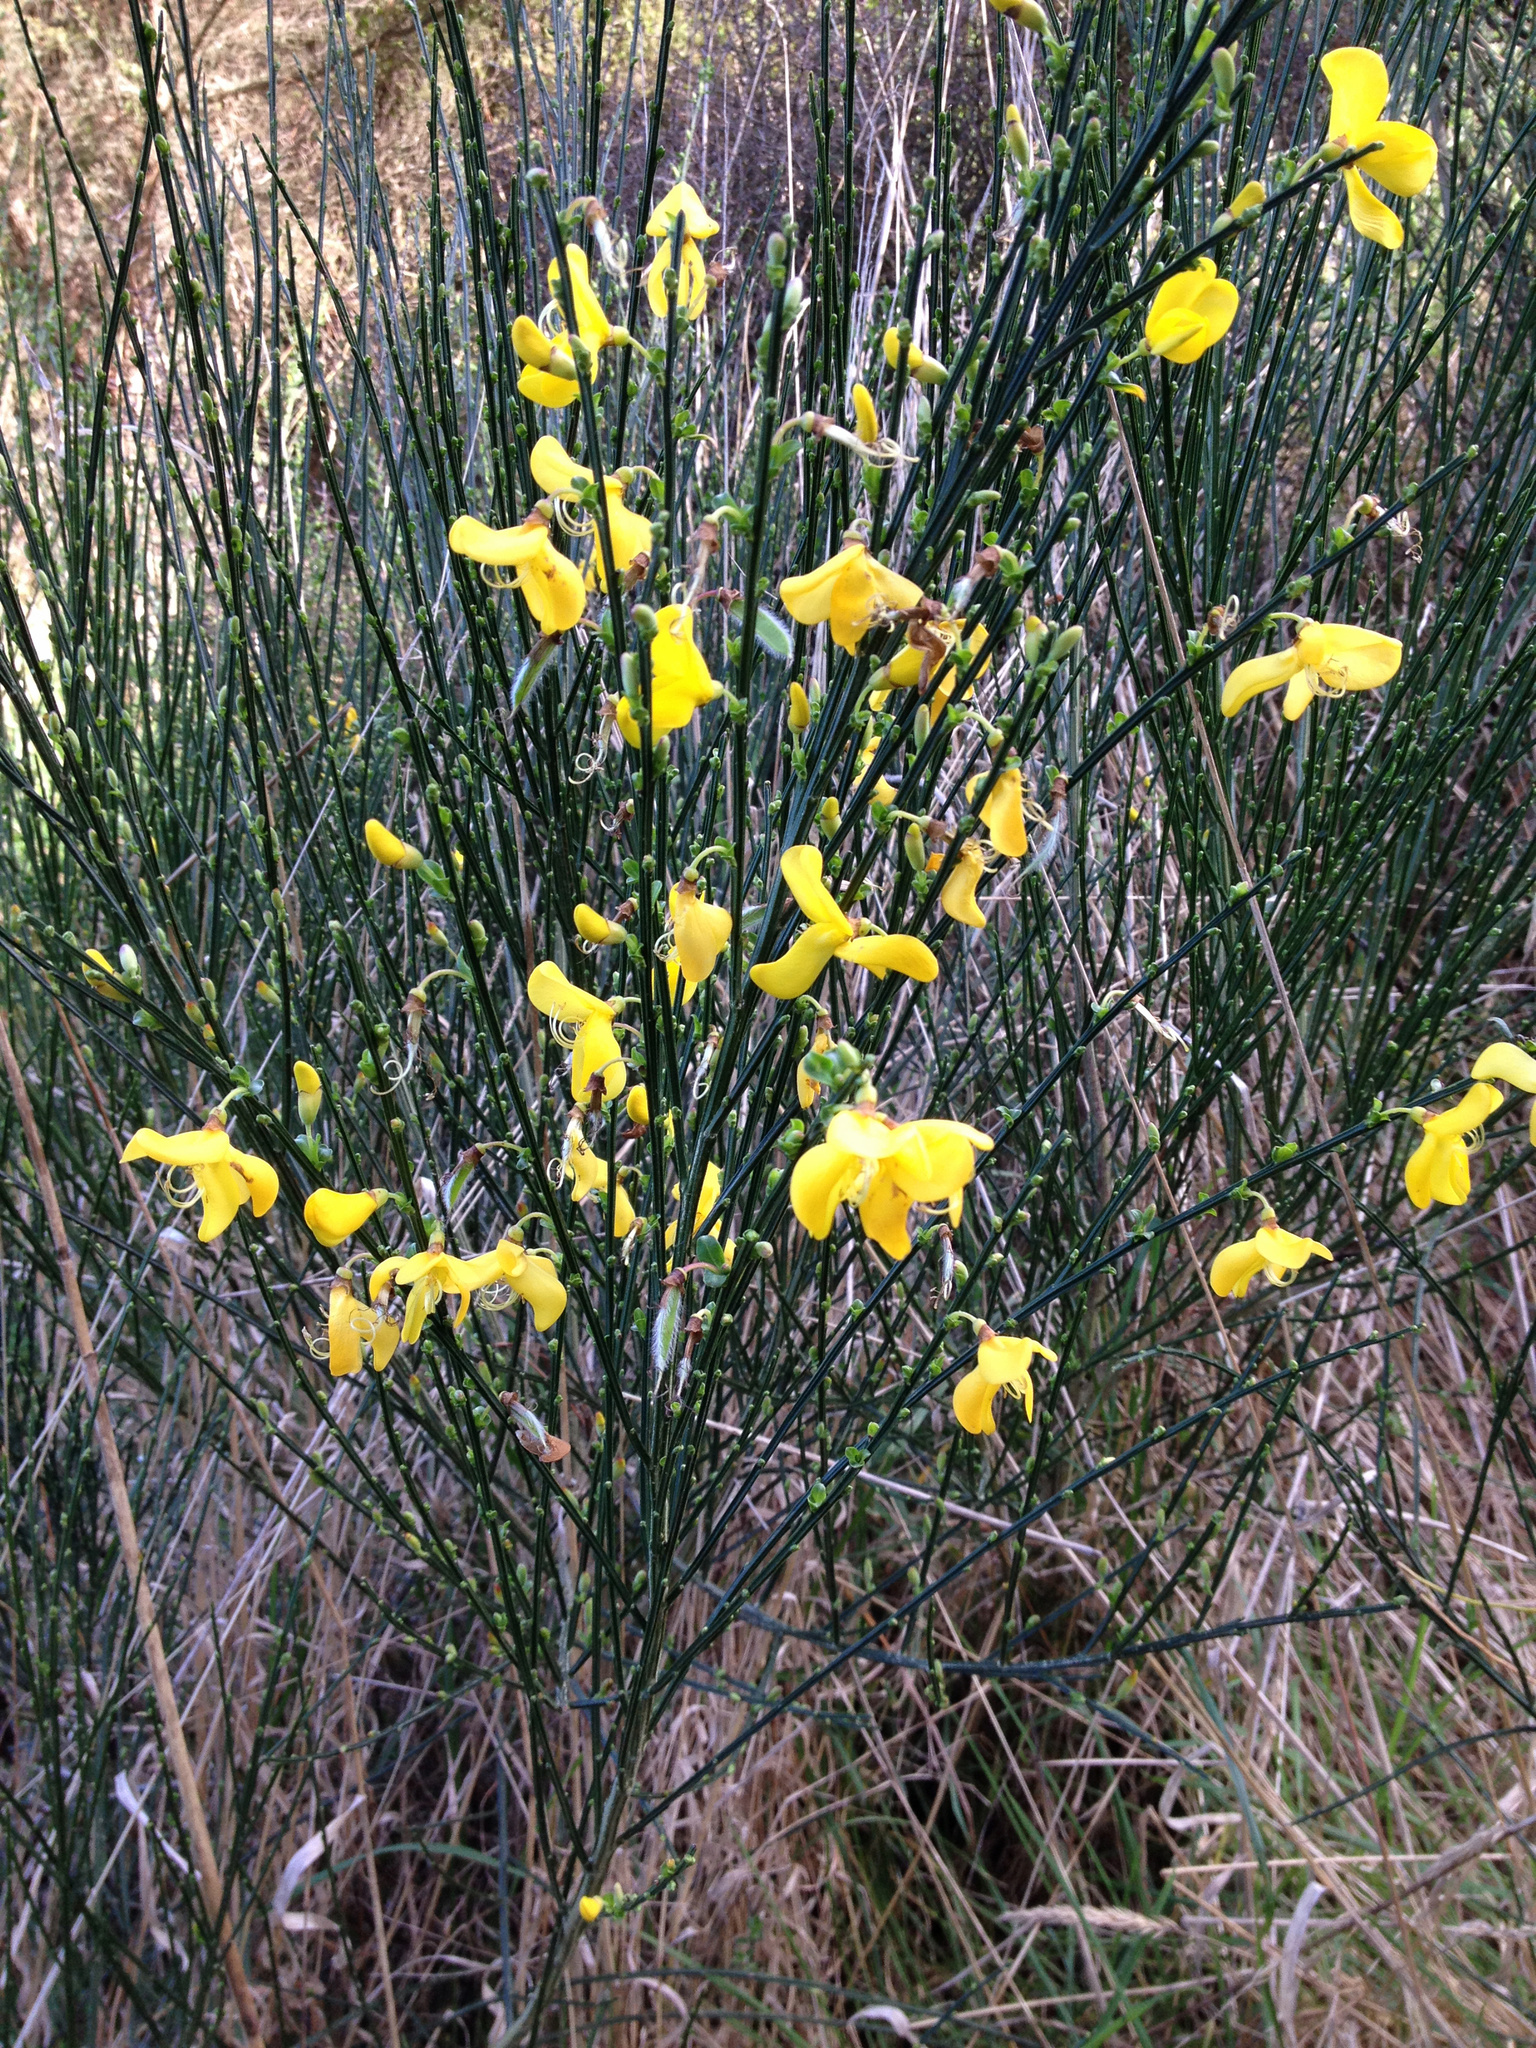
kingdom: Plantae
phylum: Tracheophyta
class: Magnoliopsida
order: Fabales
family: Fabaceae
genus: Cytisus
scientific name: Cytisus scoparius
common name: Scotch broom
